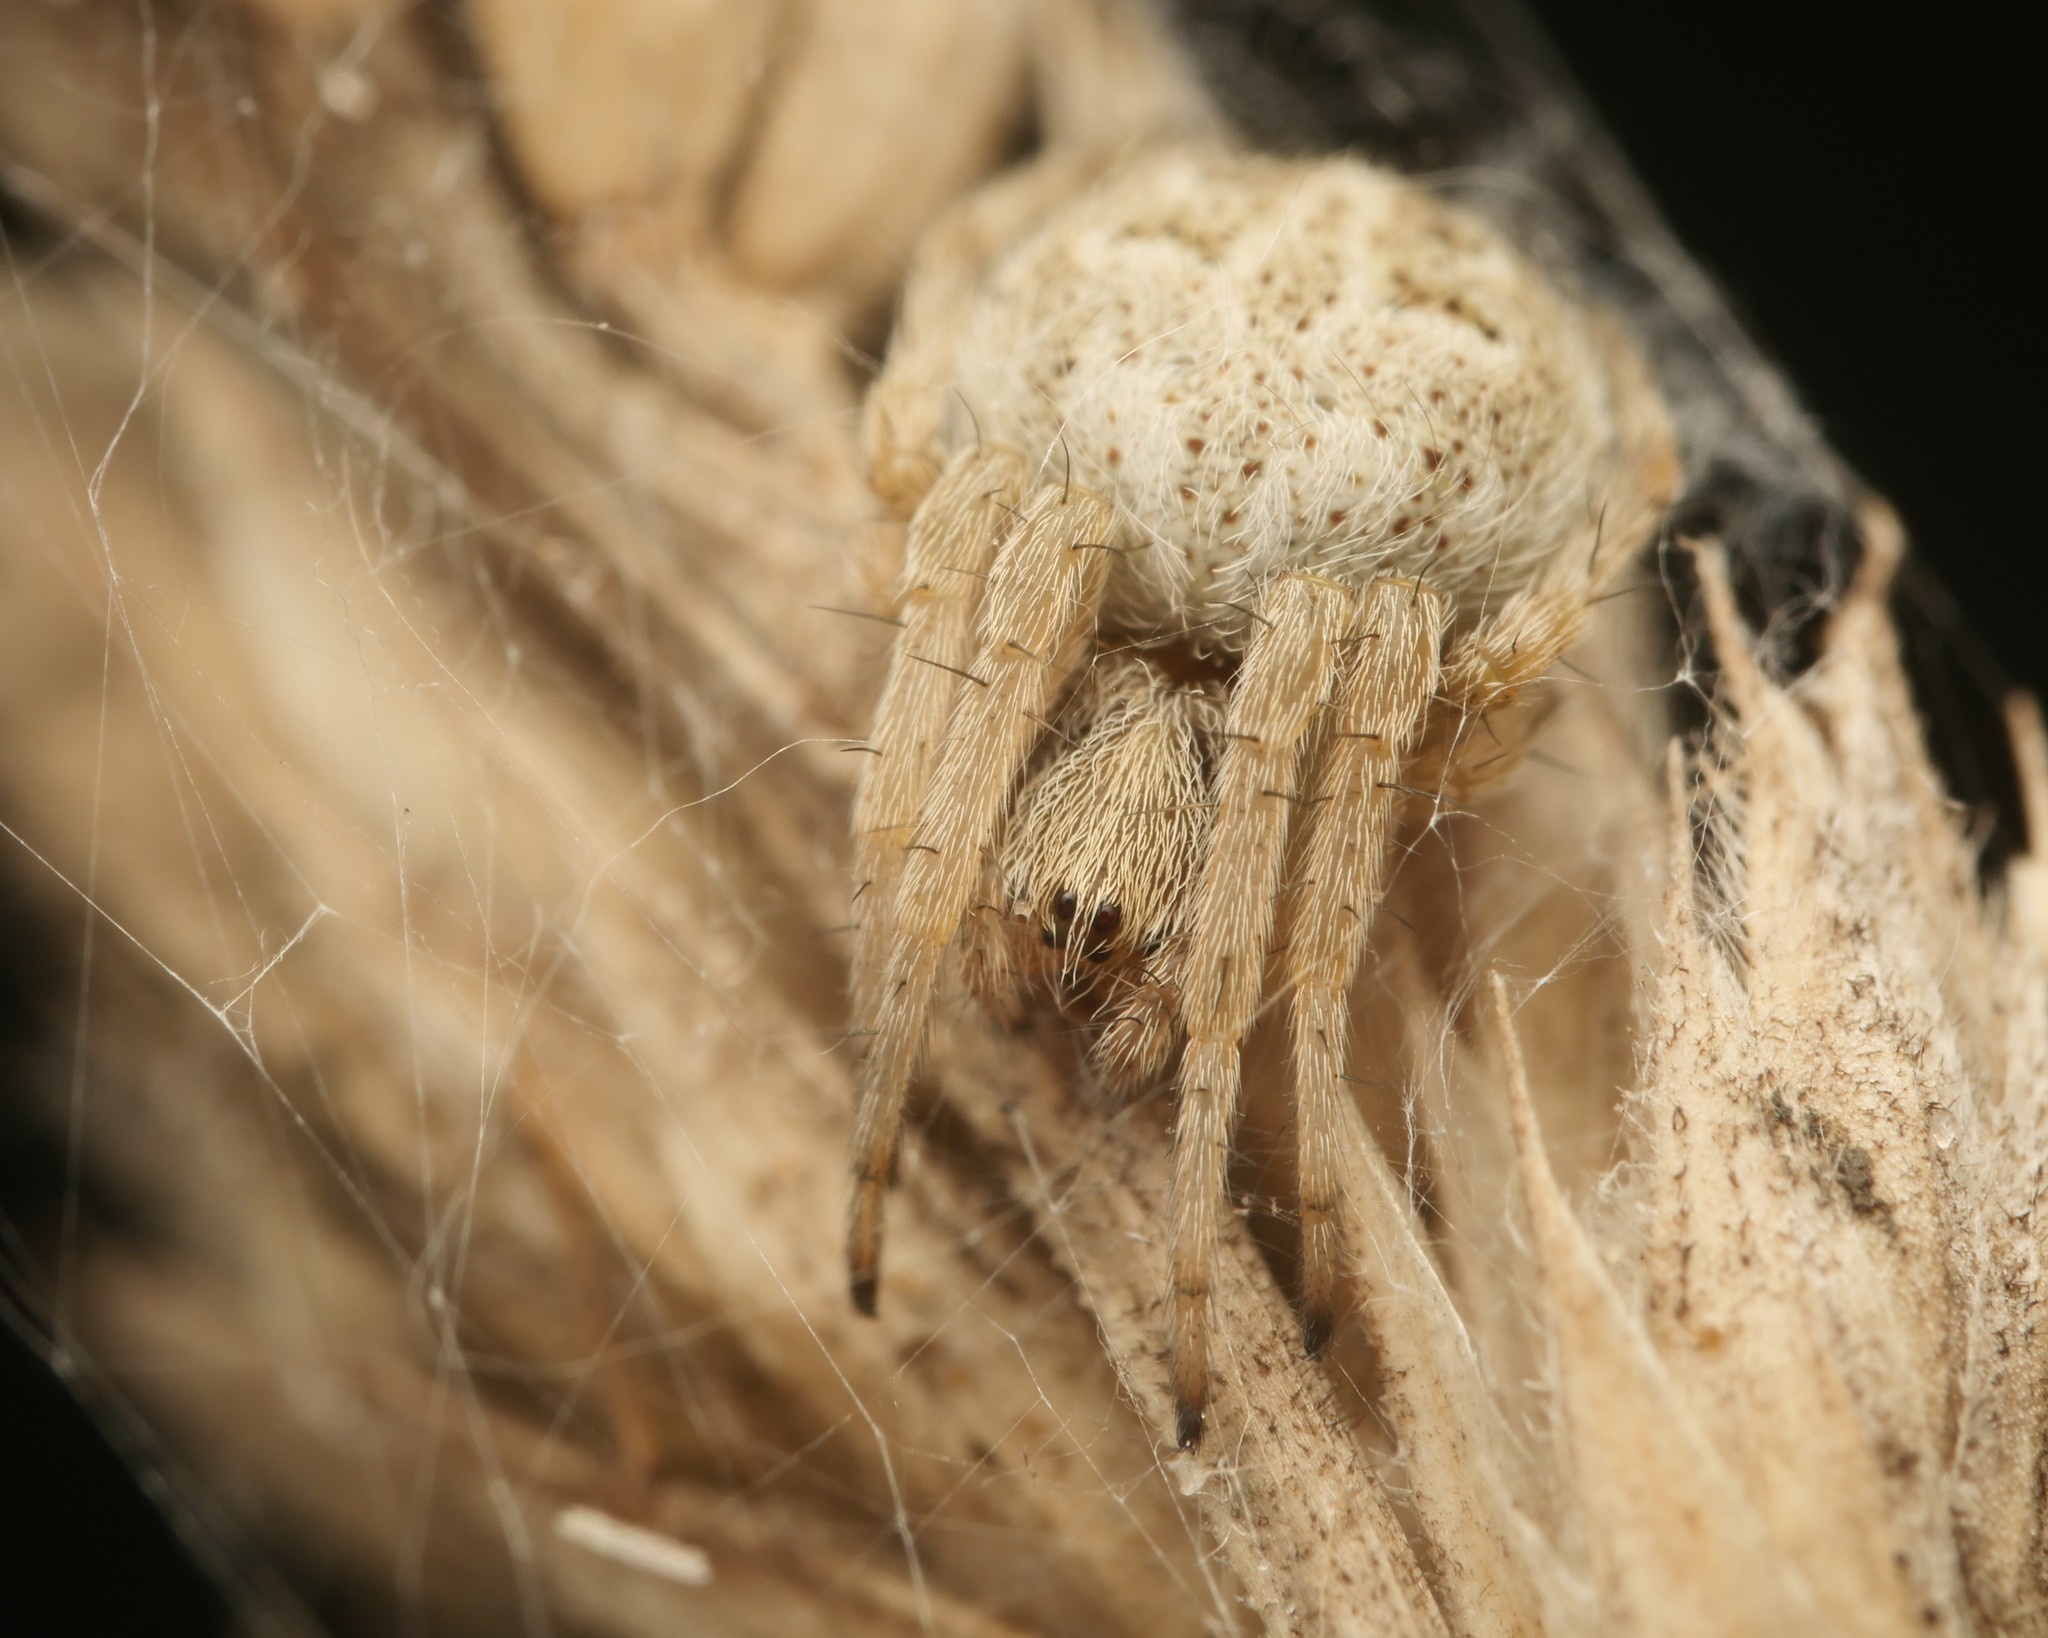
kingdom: Animalia
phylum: Arthropoda
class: Arachnida
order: Araneae
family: Araneidae
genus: Agalenatea
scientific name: Agalenatea redii
